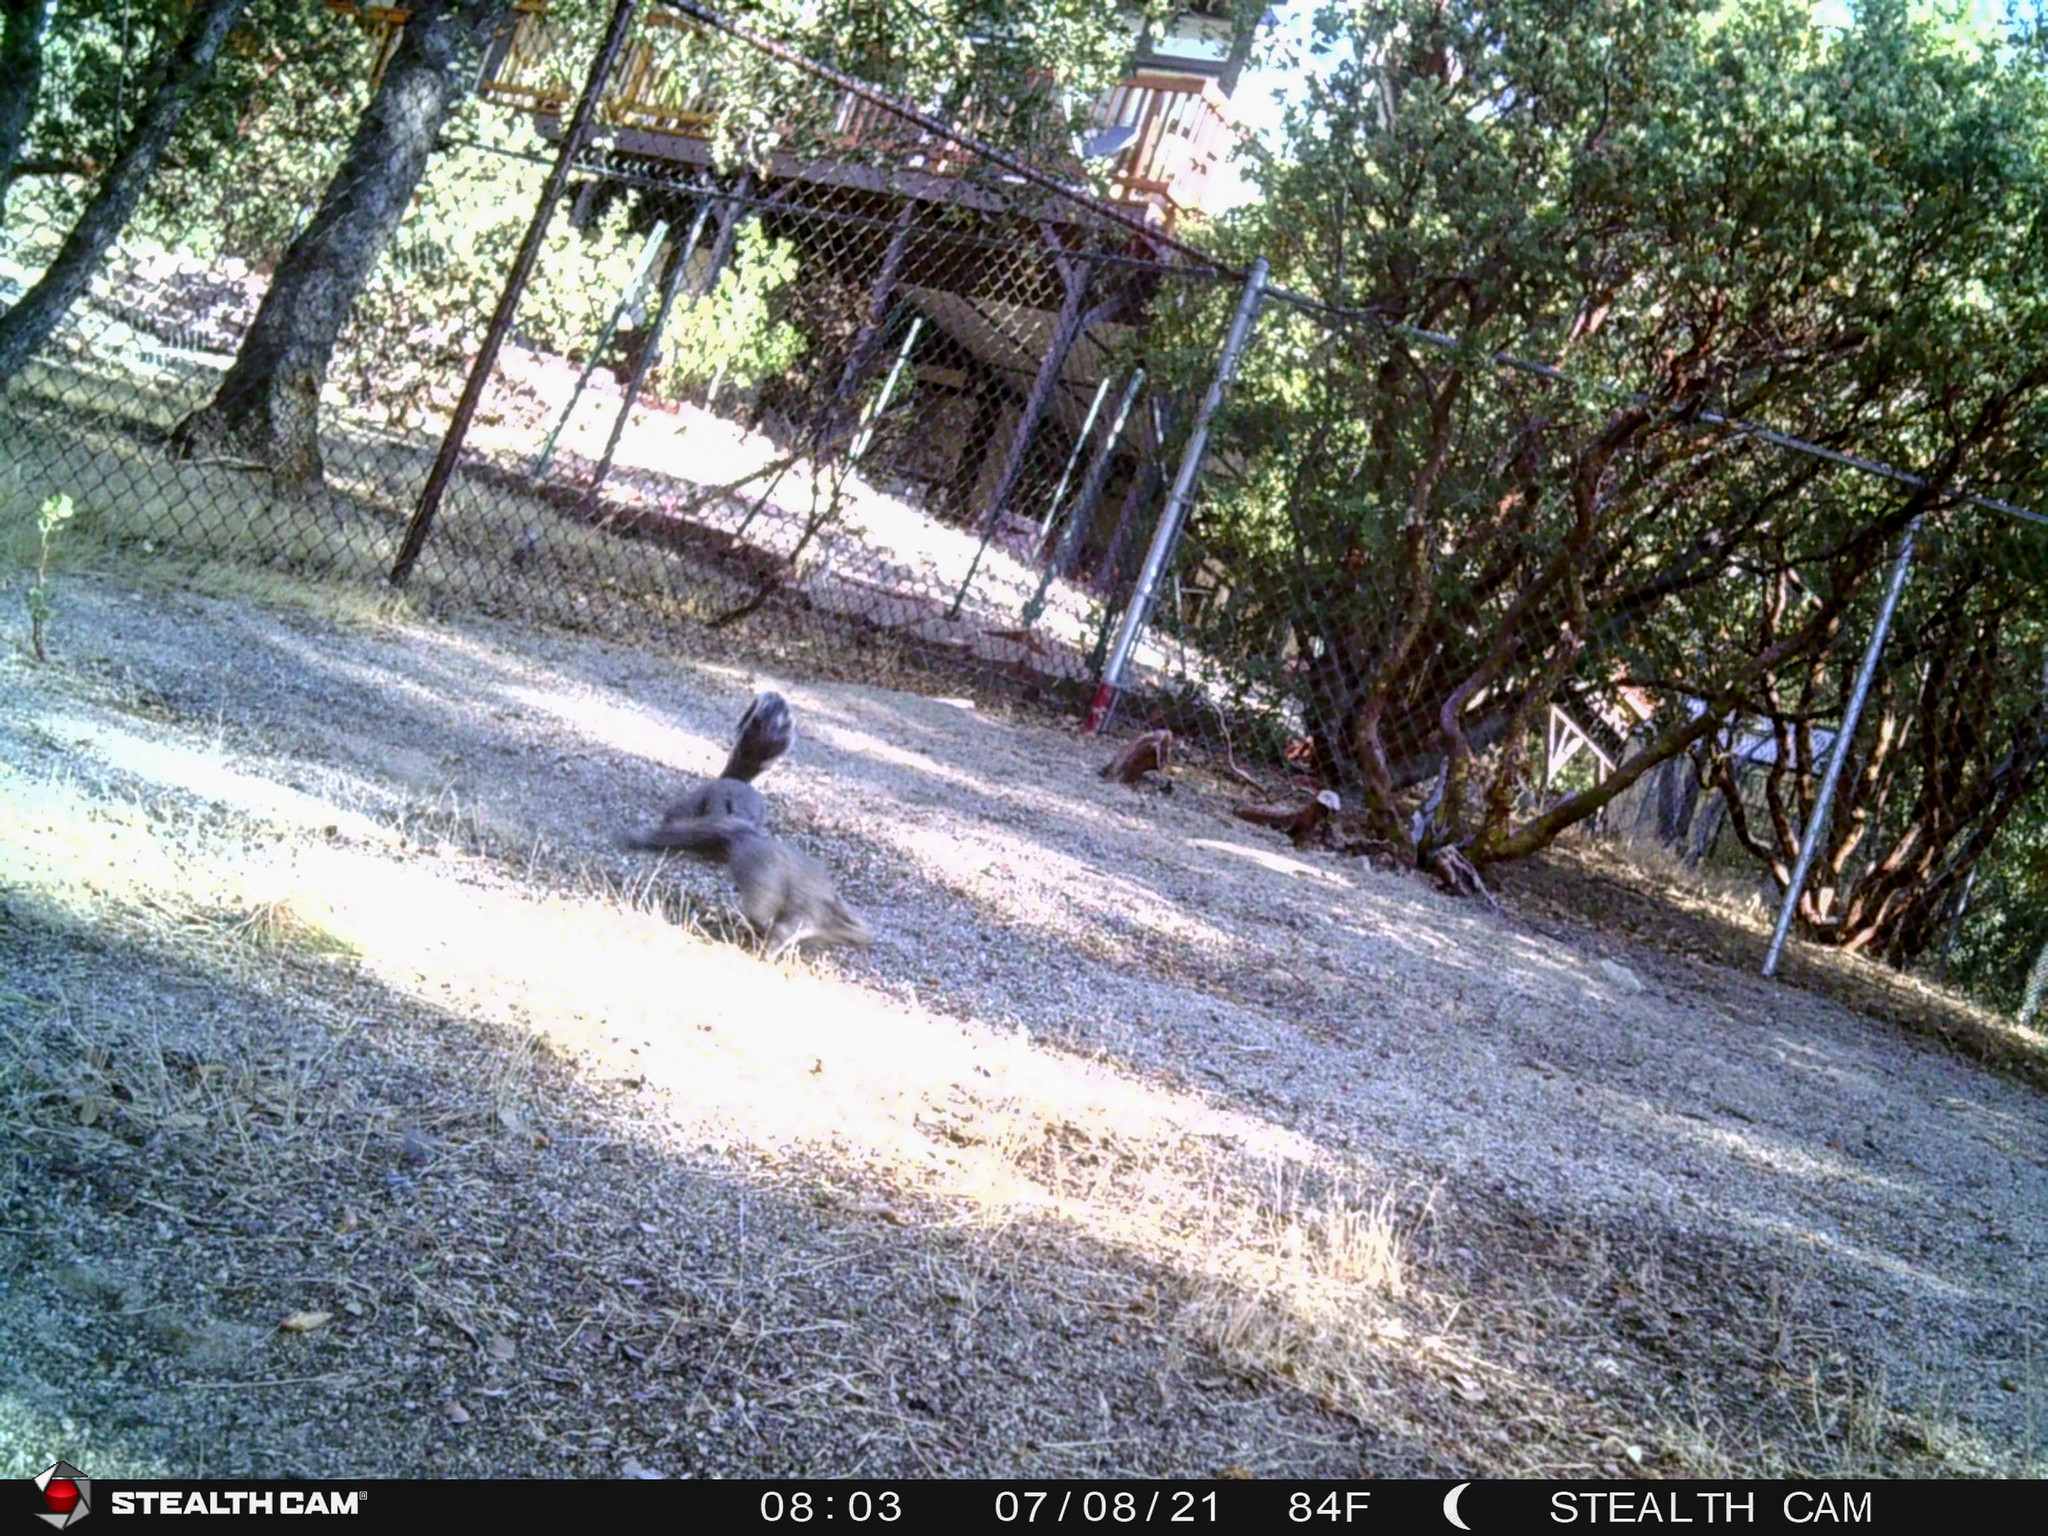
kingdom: Animalia
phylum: Chordata
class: Mammalia
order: Rodentia
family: Sciuridae
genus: Sciurus
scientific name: Sciurus griseus
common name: Western gray squirrel
